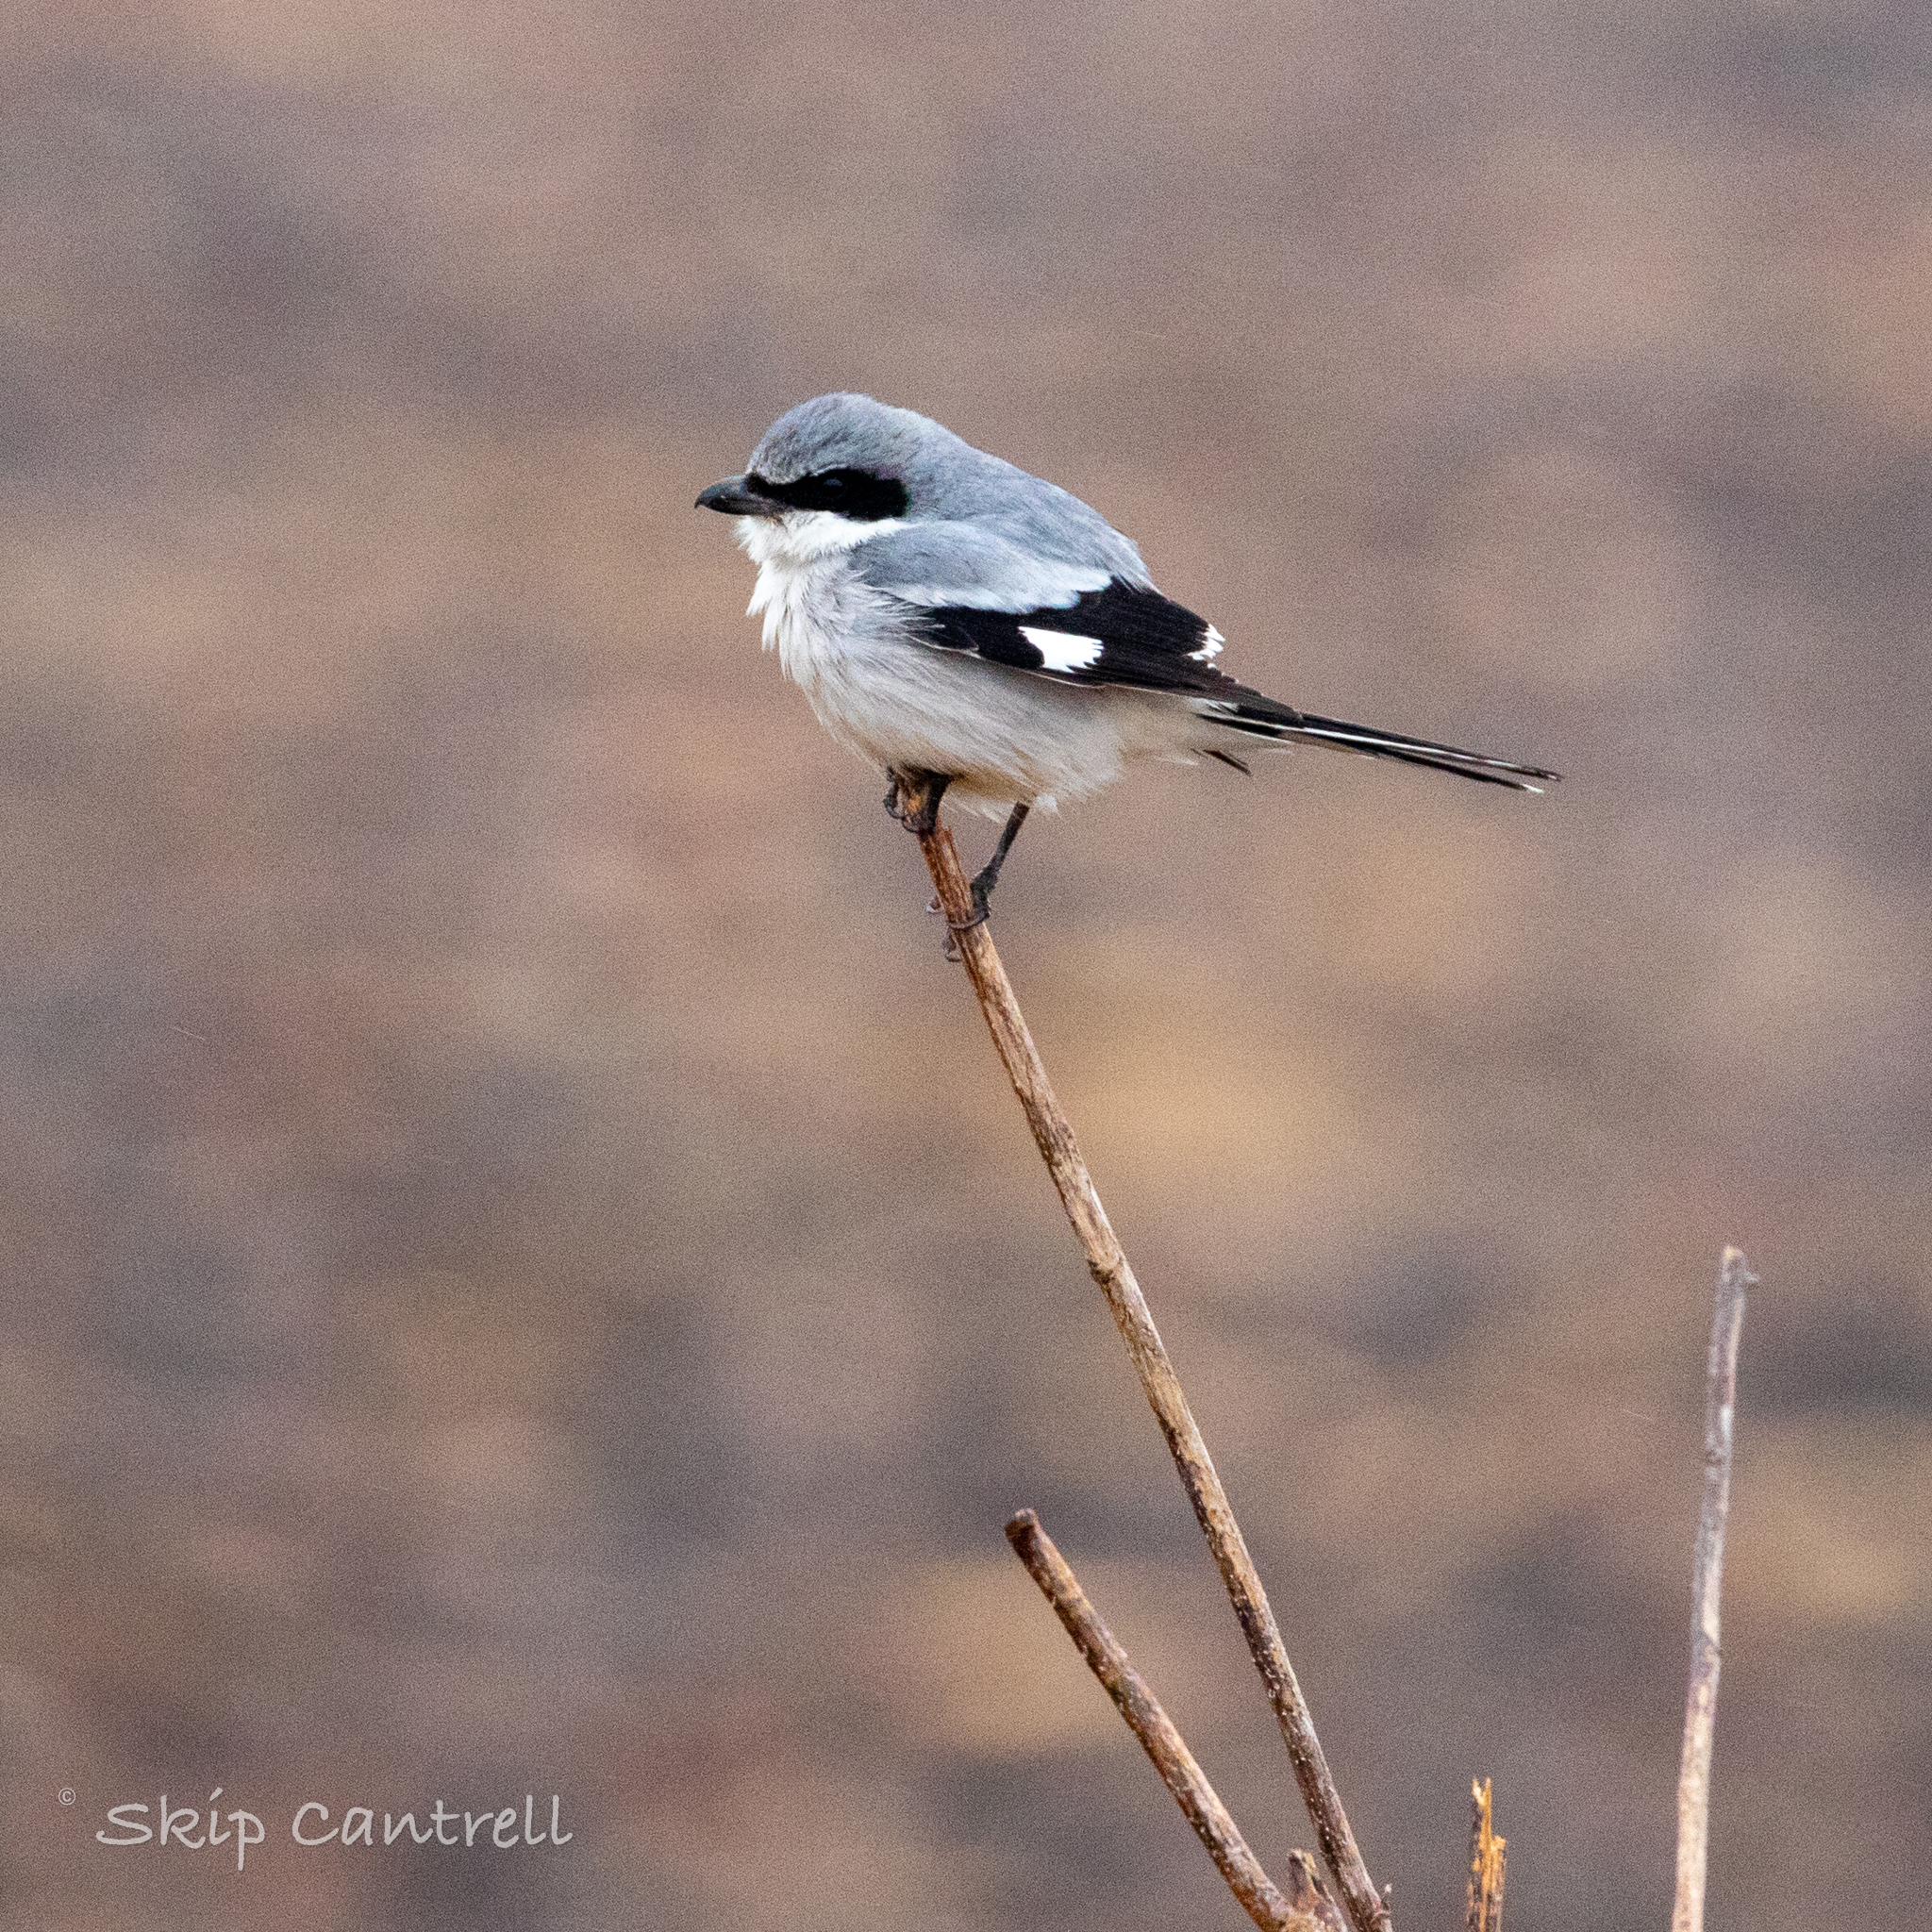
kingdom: Animalia
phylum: Chordata
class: Aves
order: Passeriformes
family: Laniidae
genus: Lanius
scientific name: Lanius ludovicianus
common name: Loggerhead shrike
